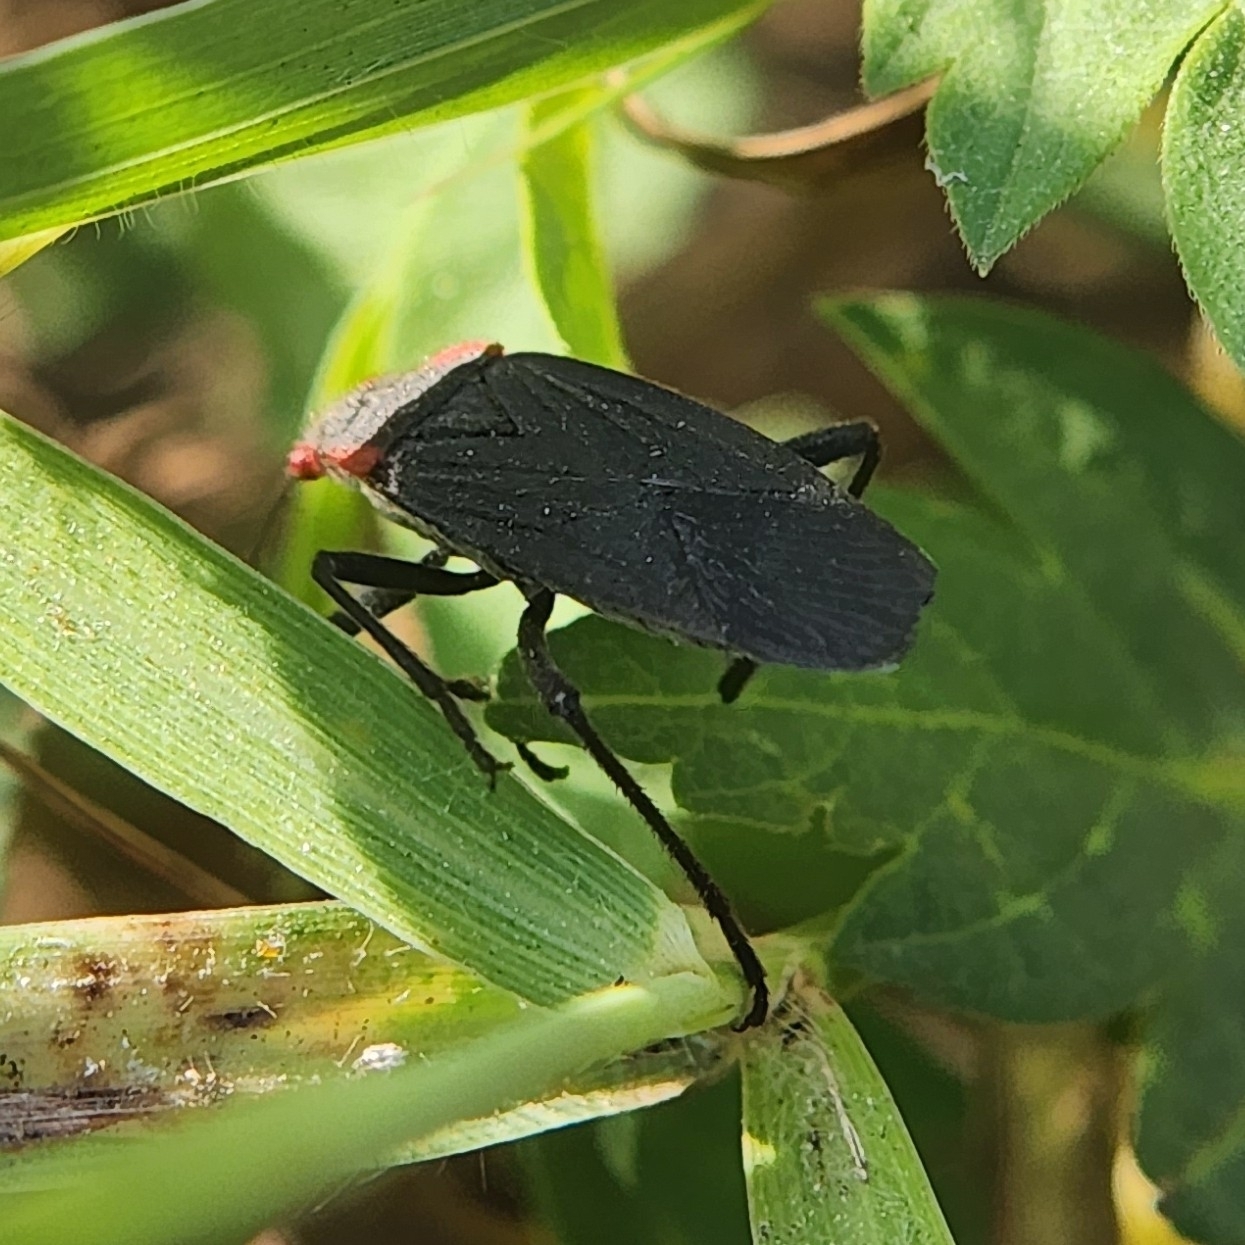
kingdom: Animalia
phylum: Arthropoda
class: Insecta
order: Hemiptera
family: Rhopalidae
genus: Jadera
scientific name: Jadera haematoloma
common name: Red-shouldered bug
